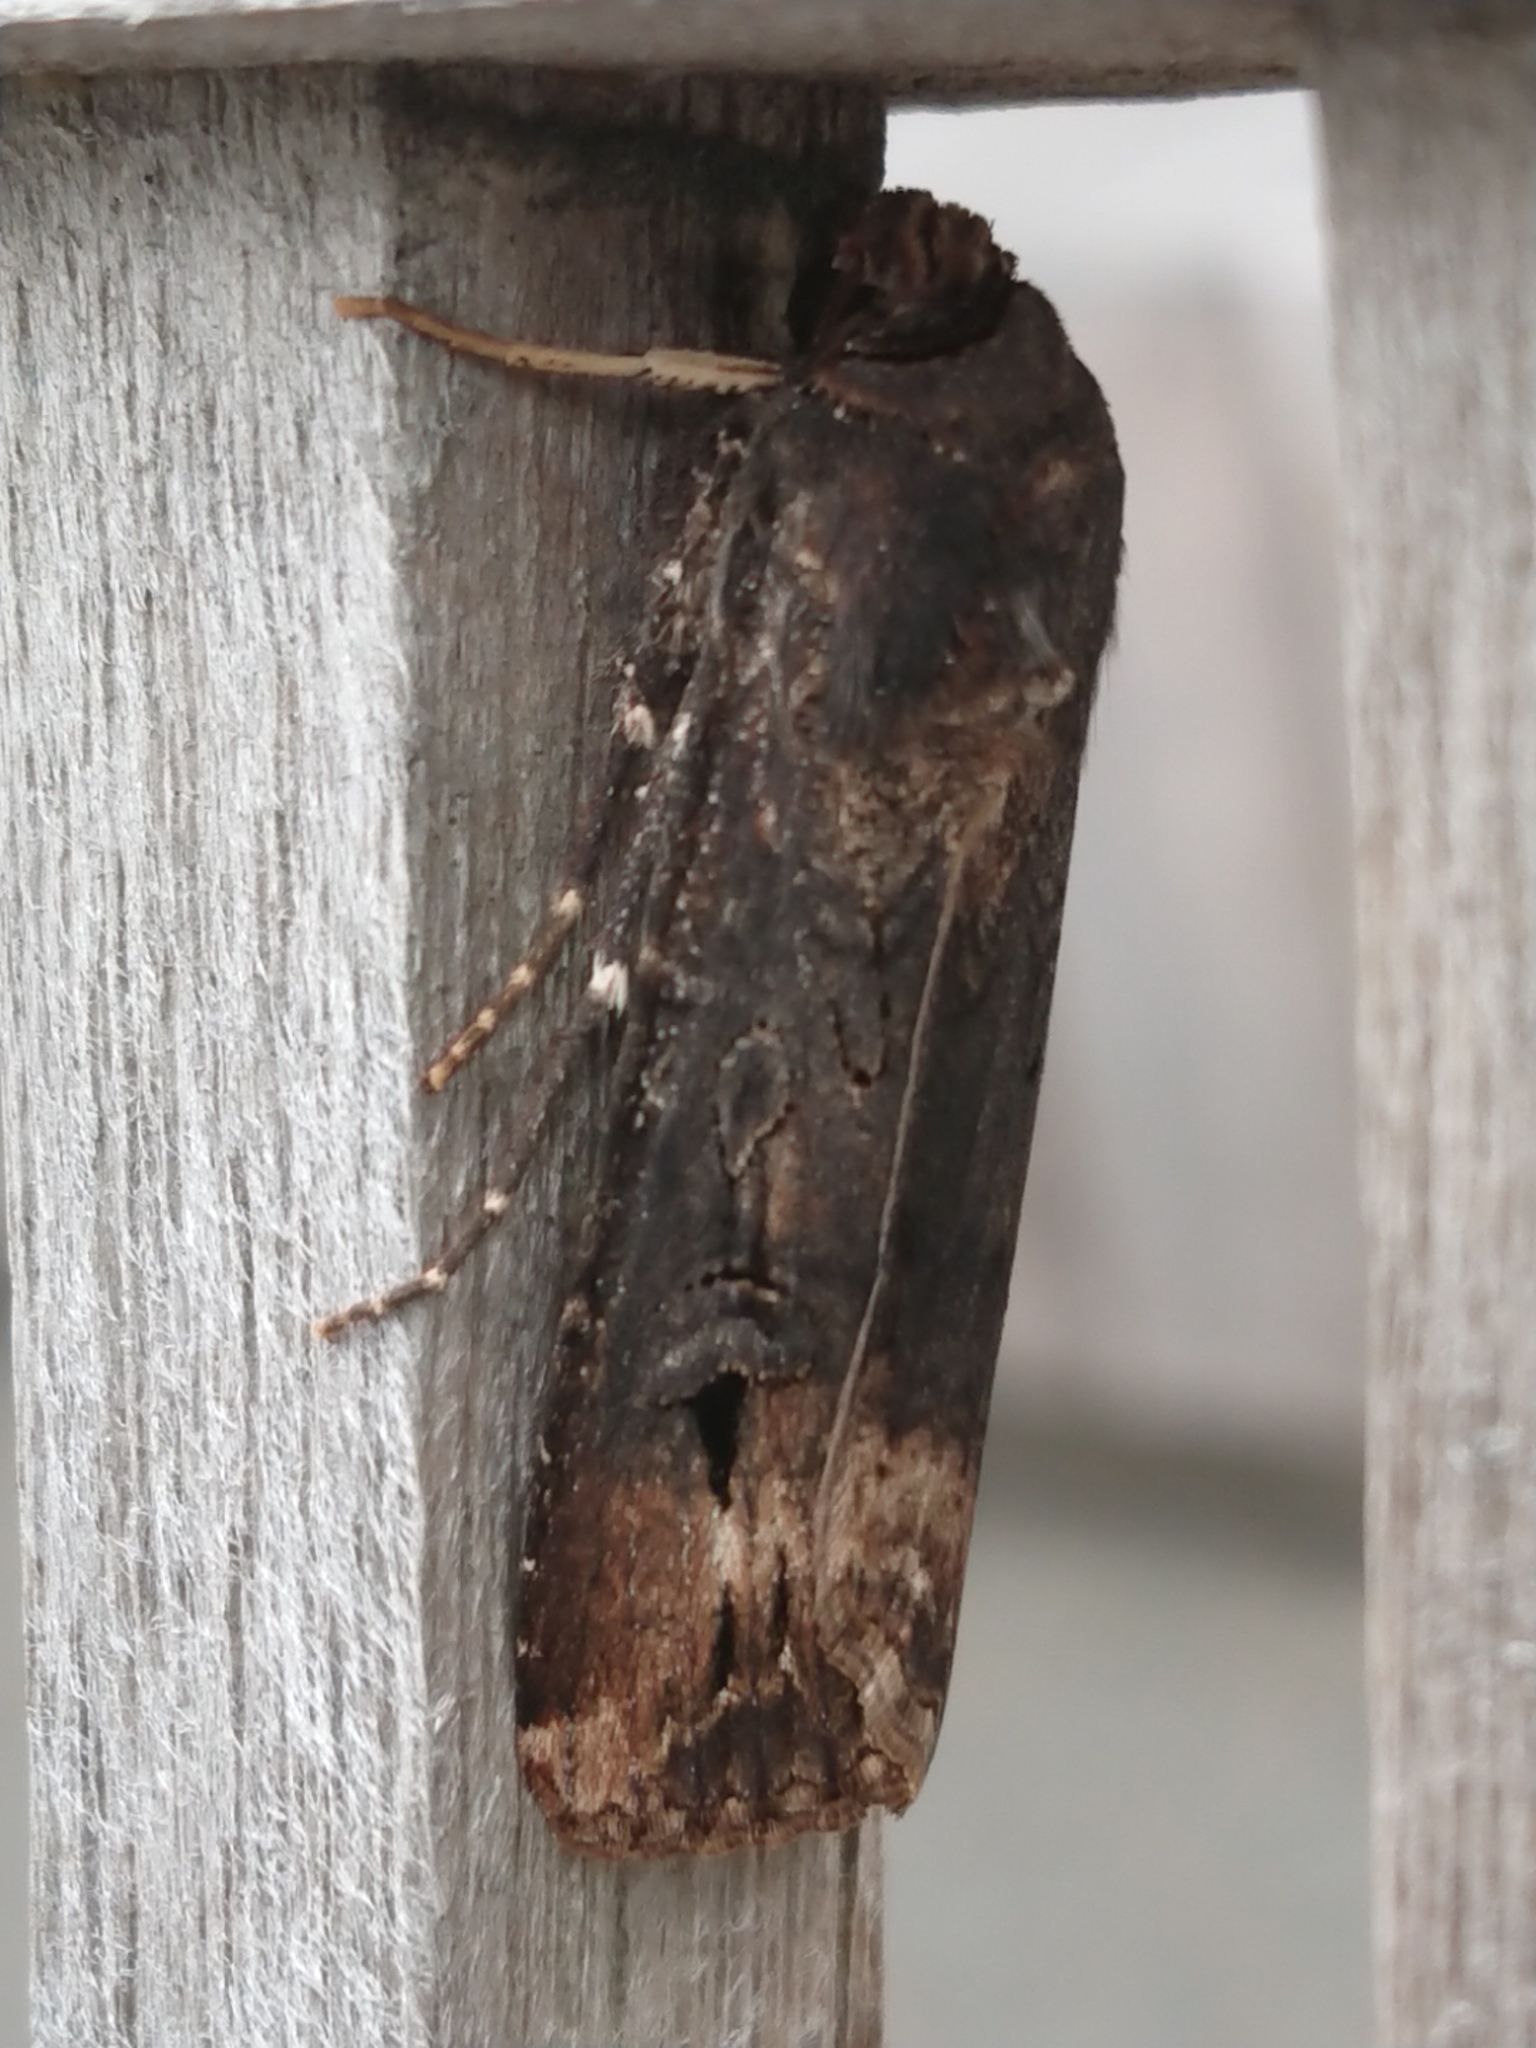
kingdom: Animalia
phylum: Arthropoda
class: Insecta
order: Lepidoptera
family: Noctuidae
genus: Agrotis
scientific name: Agrotis ipsilon
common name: Dark sword-grass
